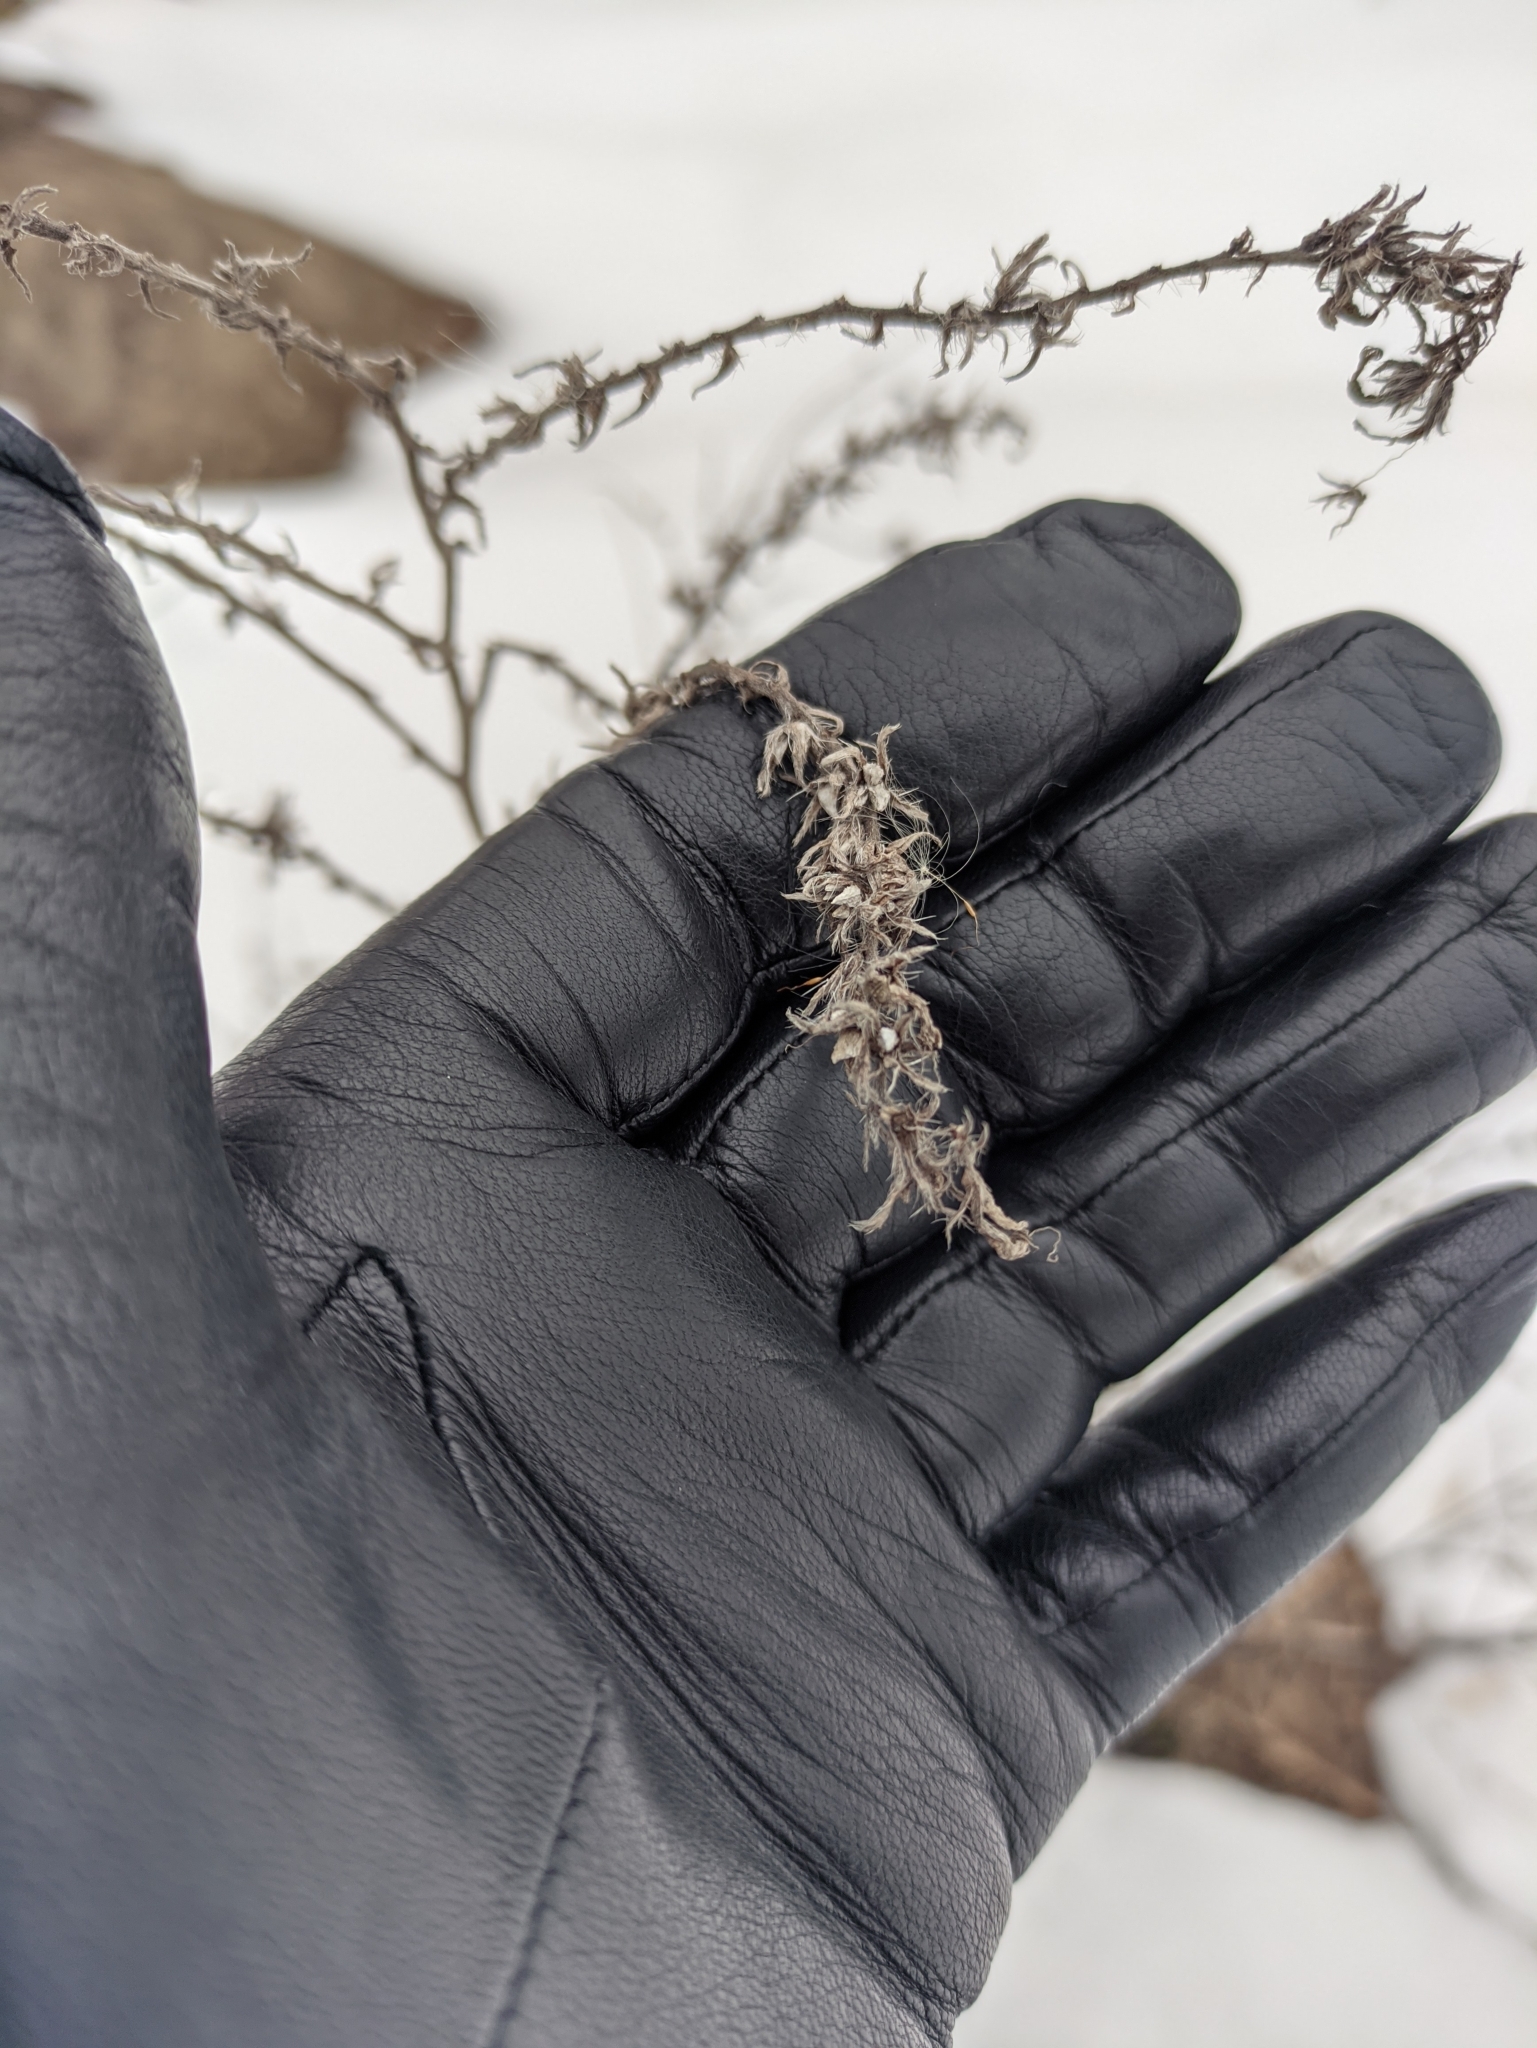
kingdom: Plantae
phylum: Tracheophyta
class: Magnoliopsida
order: Boraginales
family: Boraginaceae
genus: Echium
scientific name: Echium vulgare
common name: Common viper's bugloss
